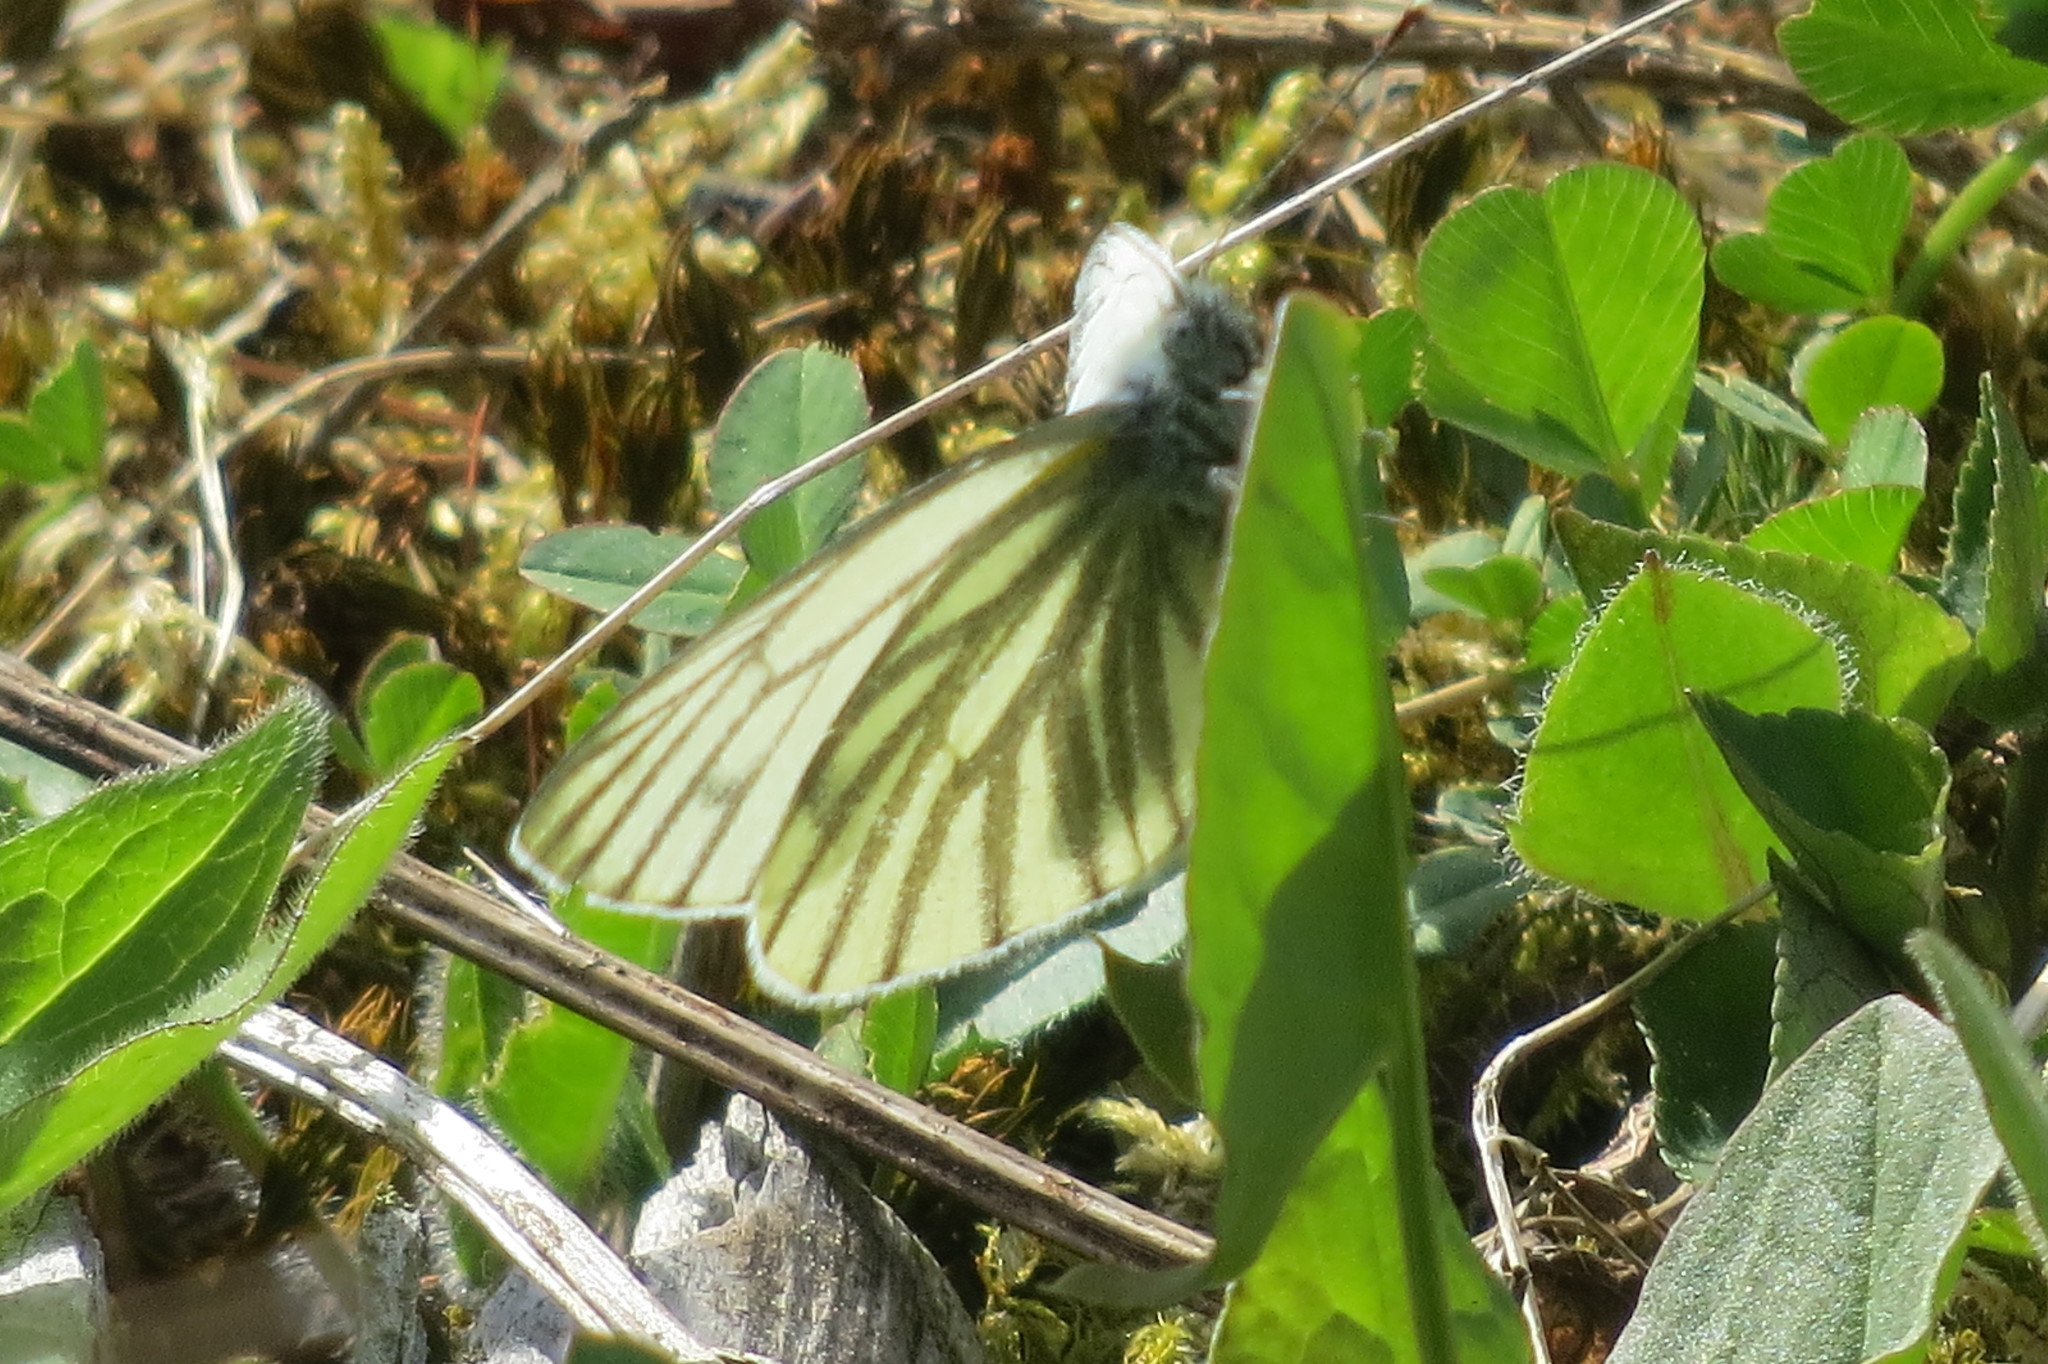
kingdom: Animalia
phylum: Arthropoda
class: Insecta
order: Lepidoptera
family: Pieridae
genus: Pieris
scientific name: Pieris bryoniae
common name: Mountain green-veined white
